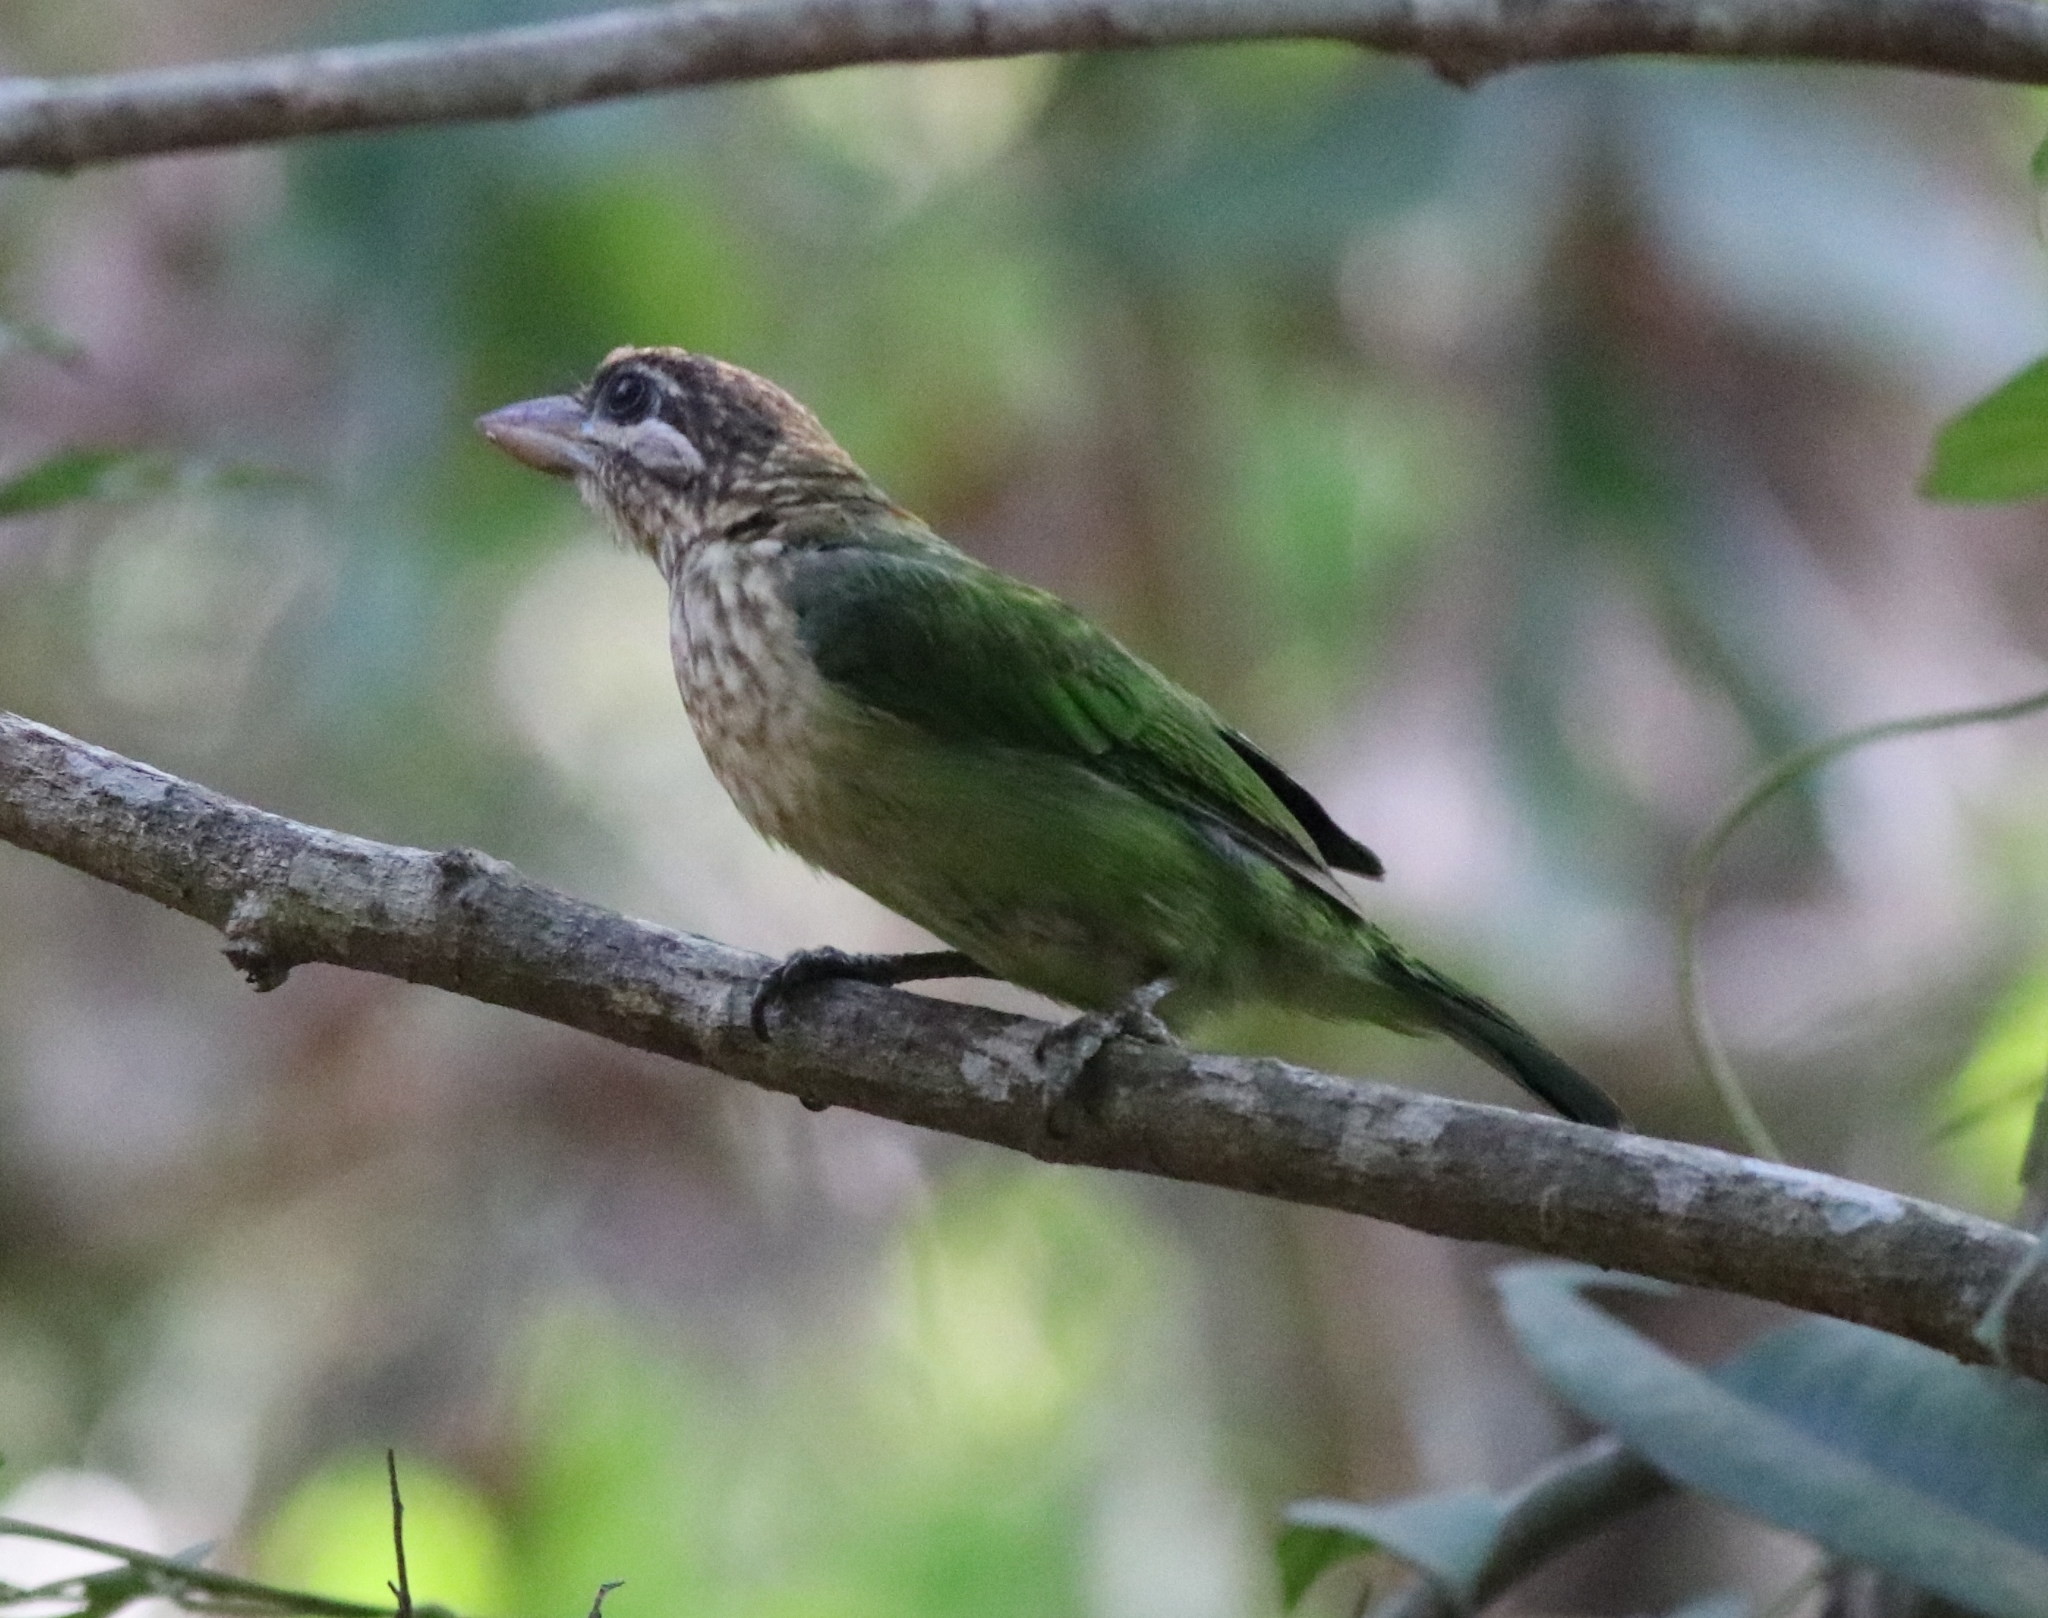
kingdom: Animalia
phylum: Chordata
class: Aves
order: Piciformes
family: Megalaimidae
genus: Psilopogon
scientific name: Psilopogon viridis
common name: White-cheeked barbet
